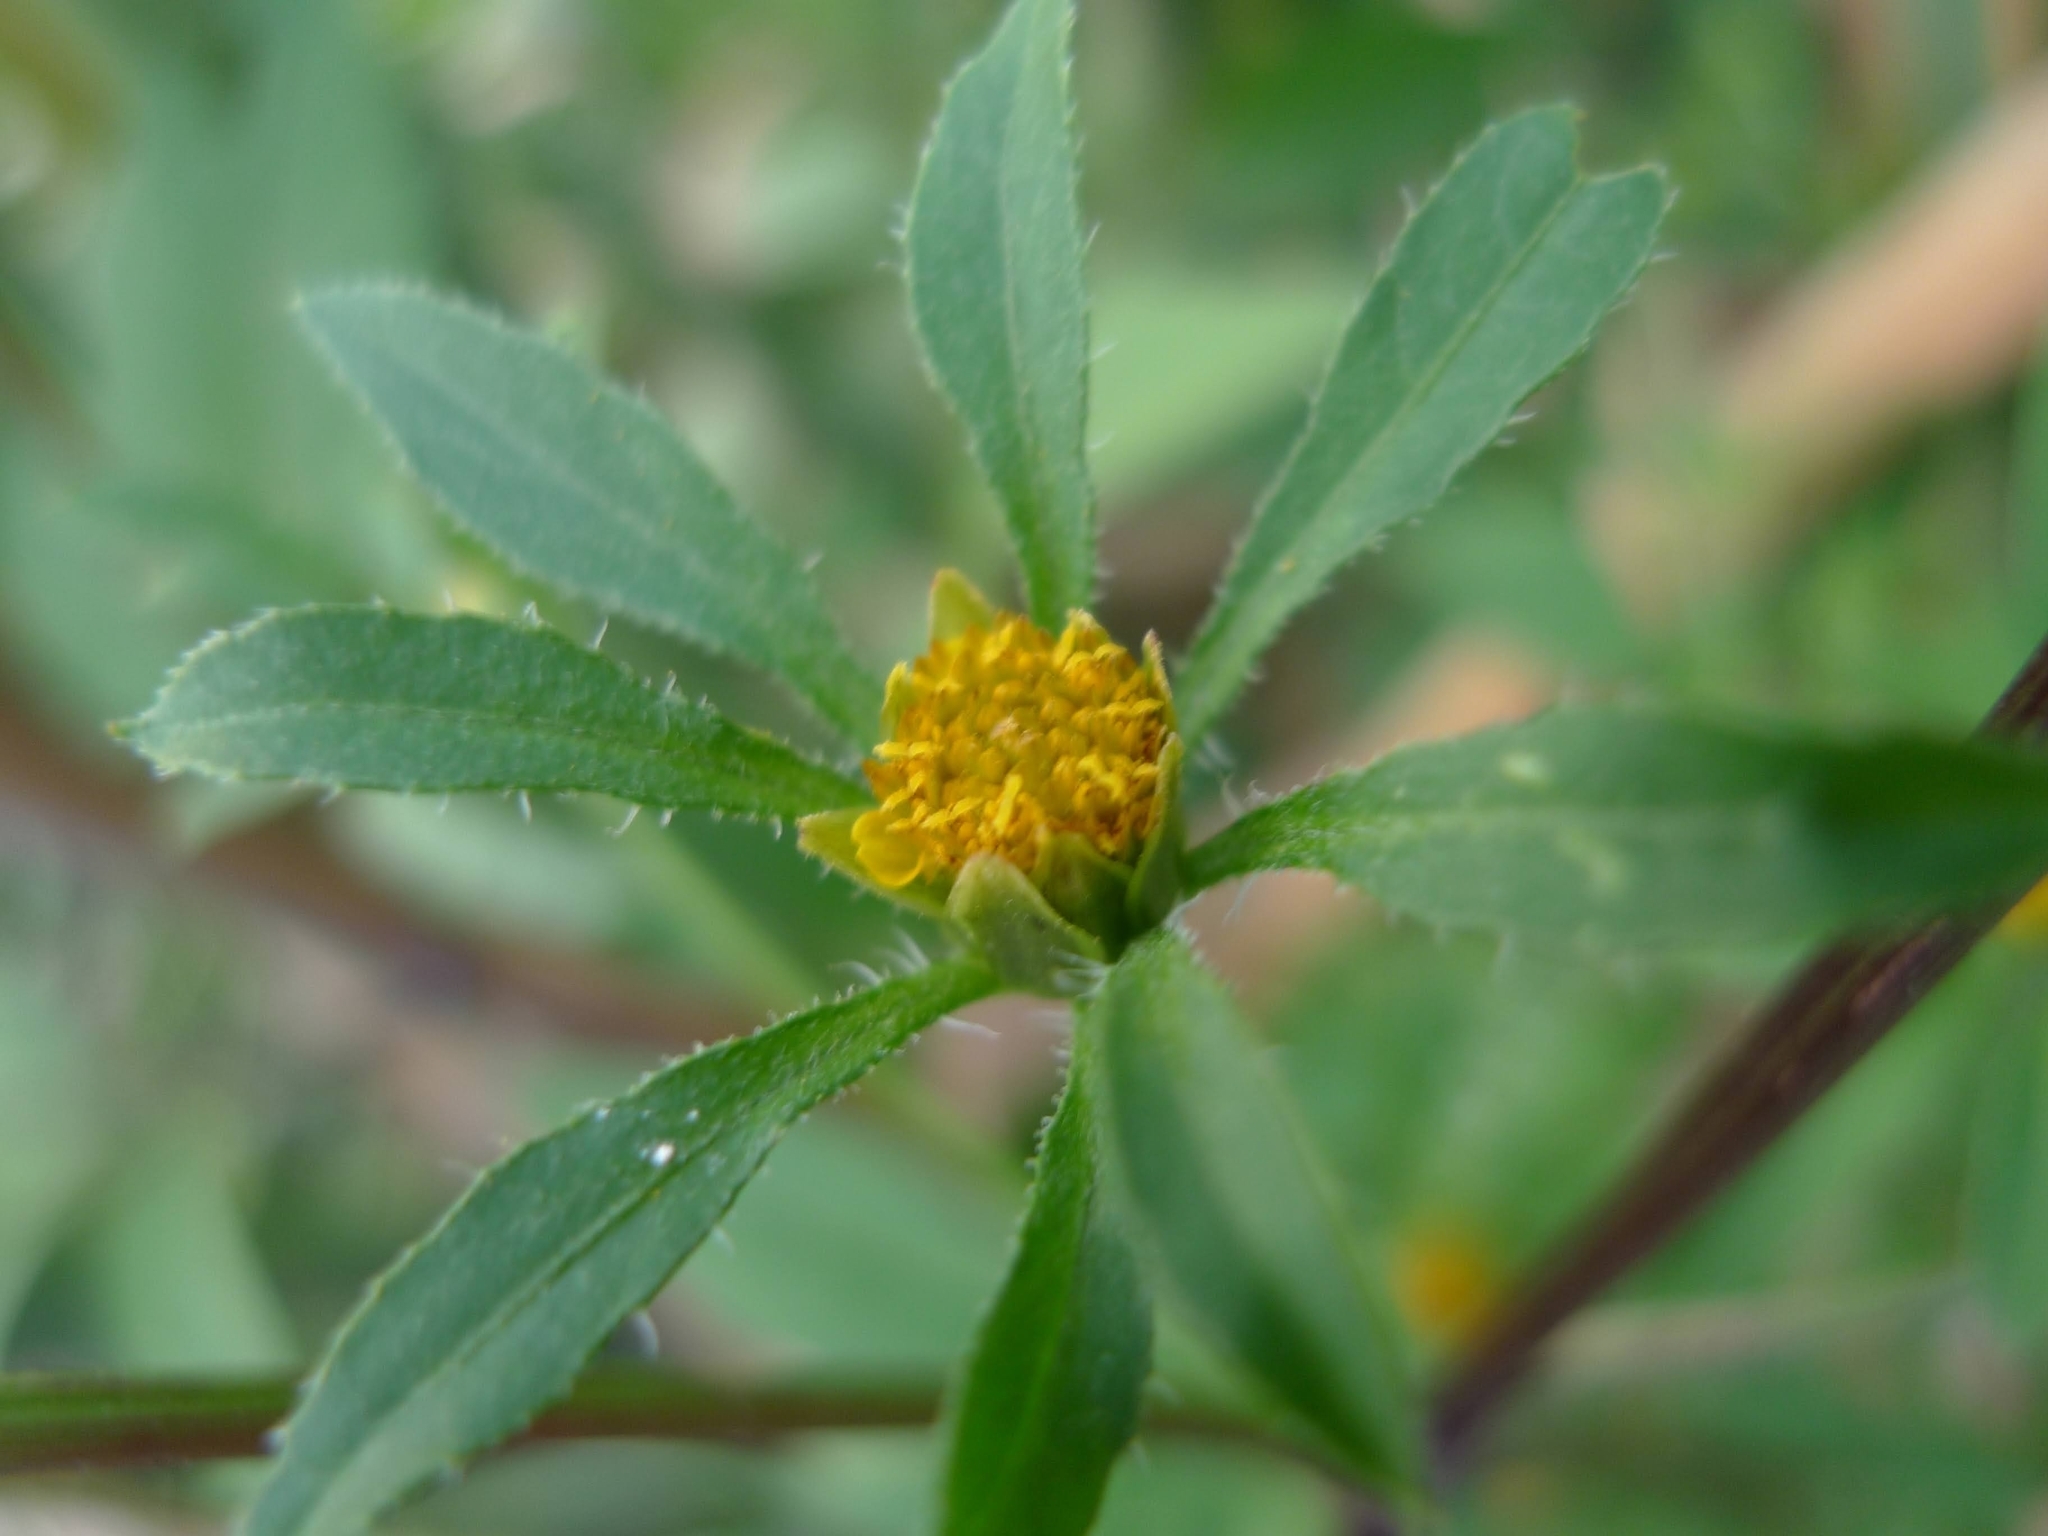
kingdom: Plantae
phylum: Tracheophyta
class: Magnoliopsida
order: Asterales
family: Asteraceae
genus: Bidens
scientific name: Bidens frondosa
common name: Beggarticks
